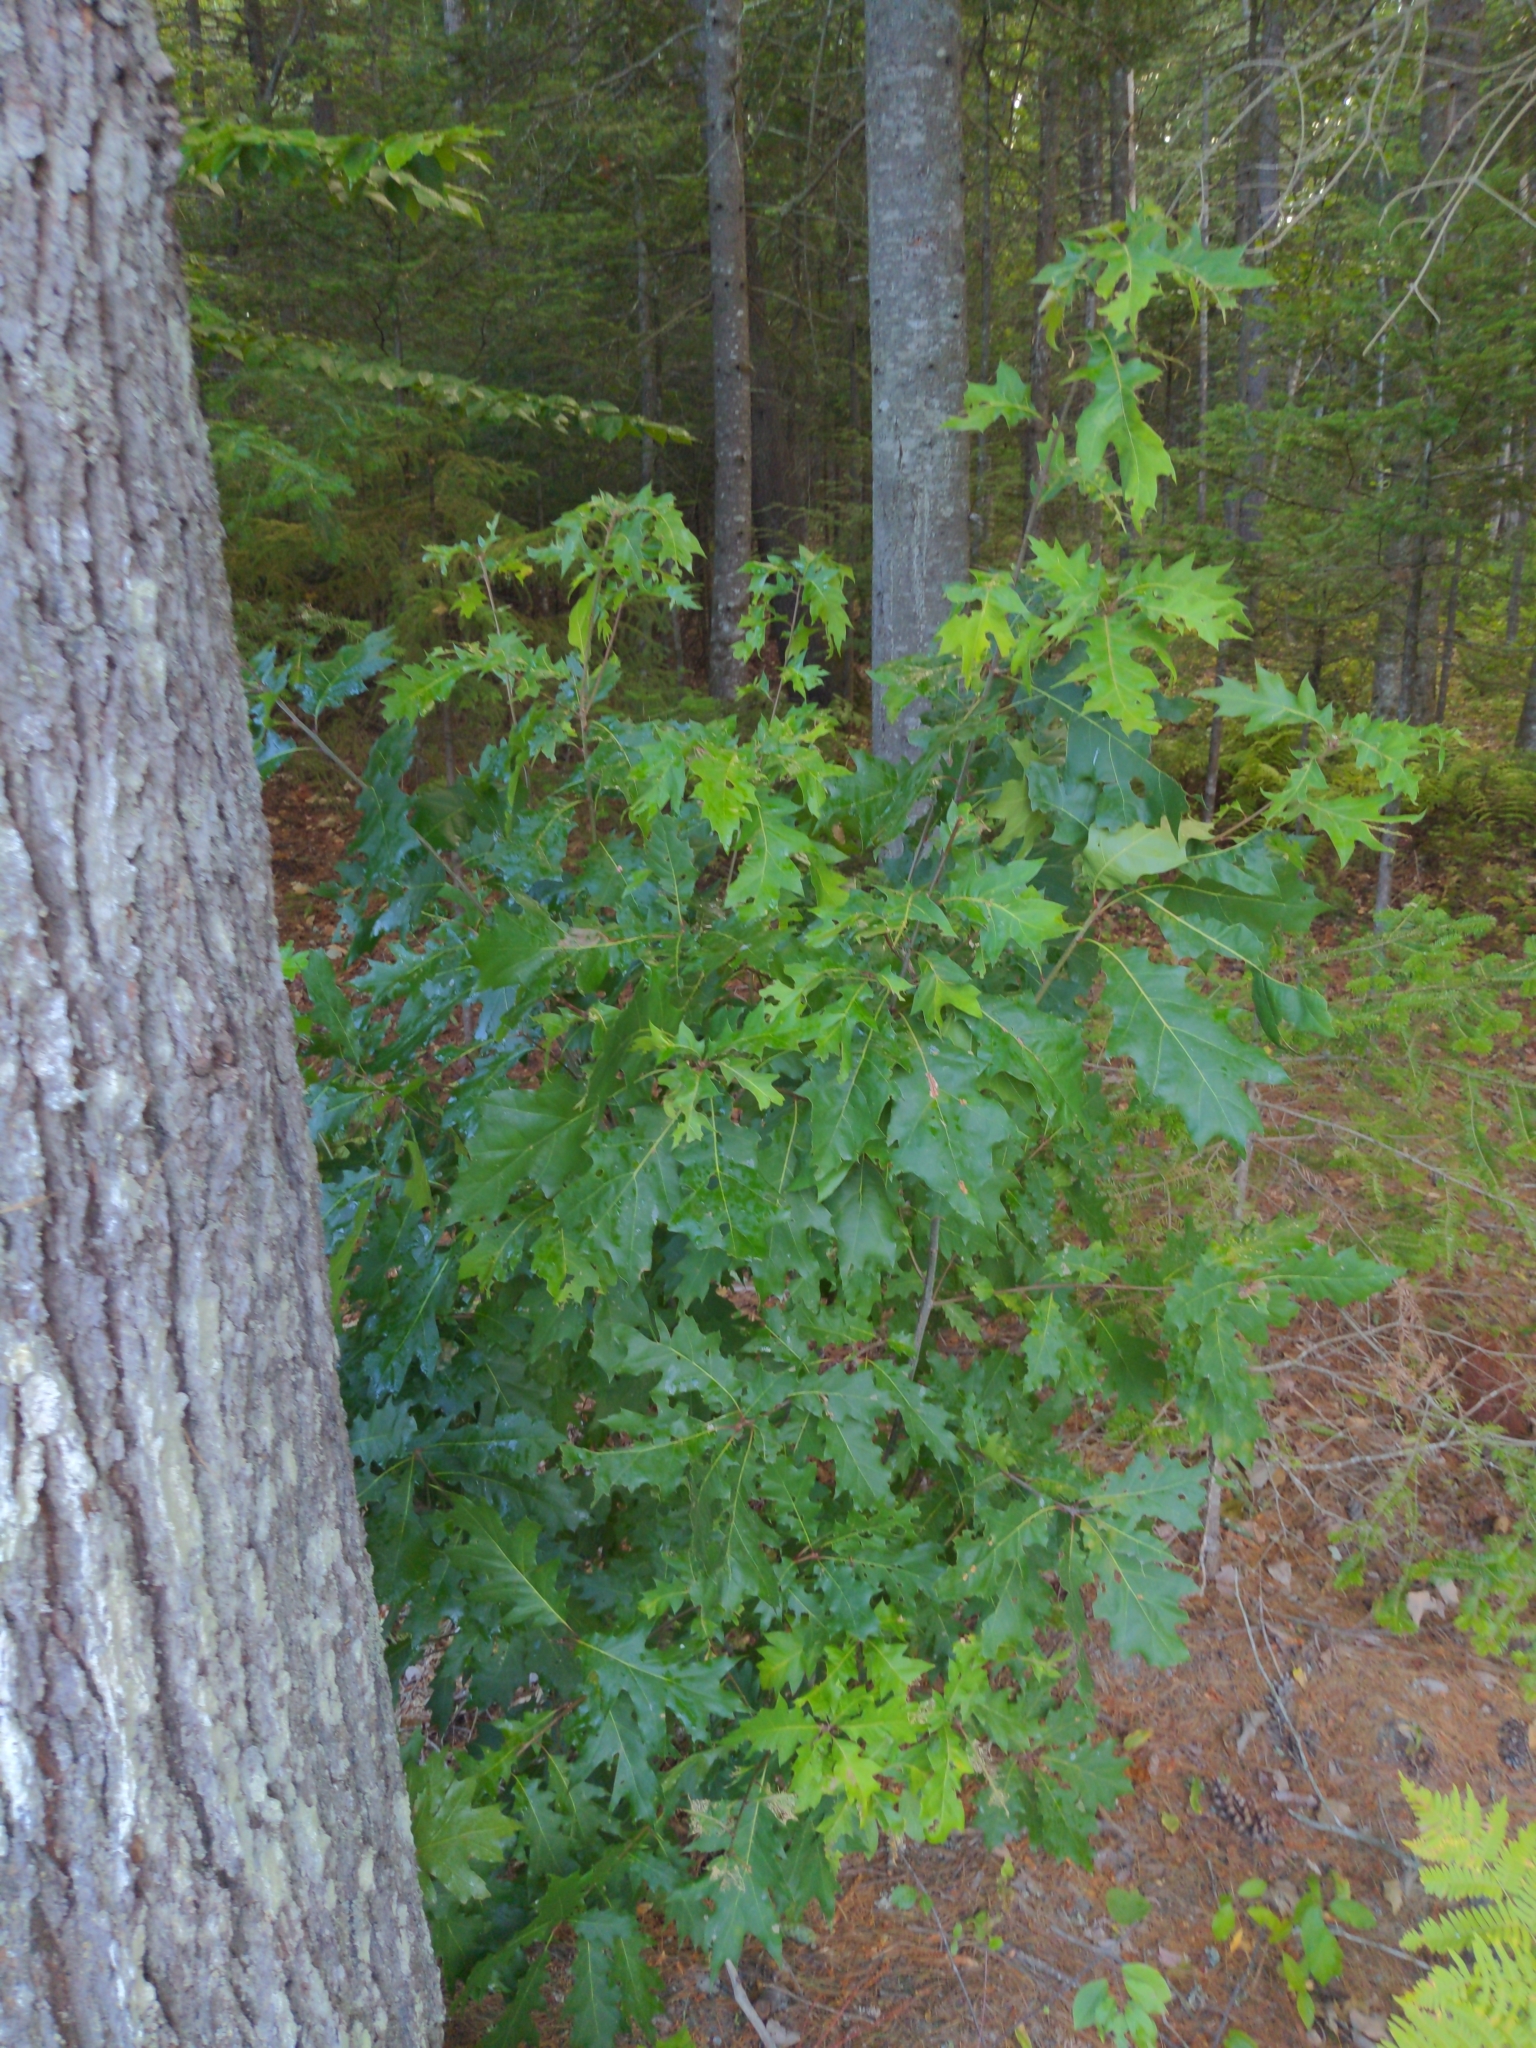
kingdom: Plantae
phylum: Tracheophyta
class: Magnoliopsida
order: Fagales
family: Fagaceae
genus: Quercus
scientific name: Quercus rubra
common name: Red oak
